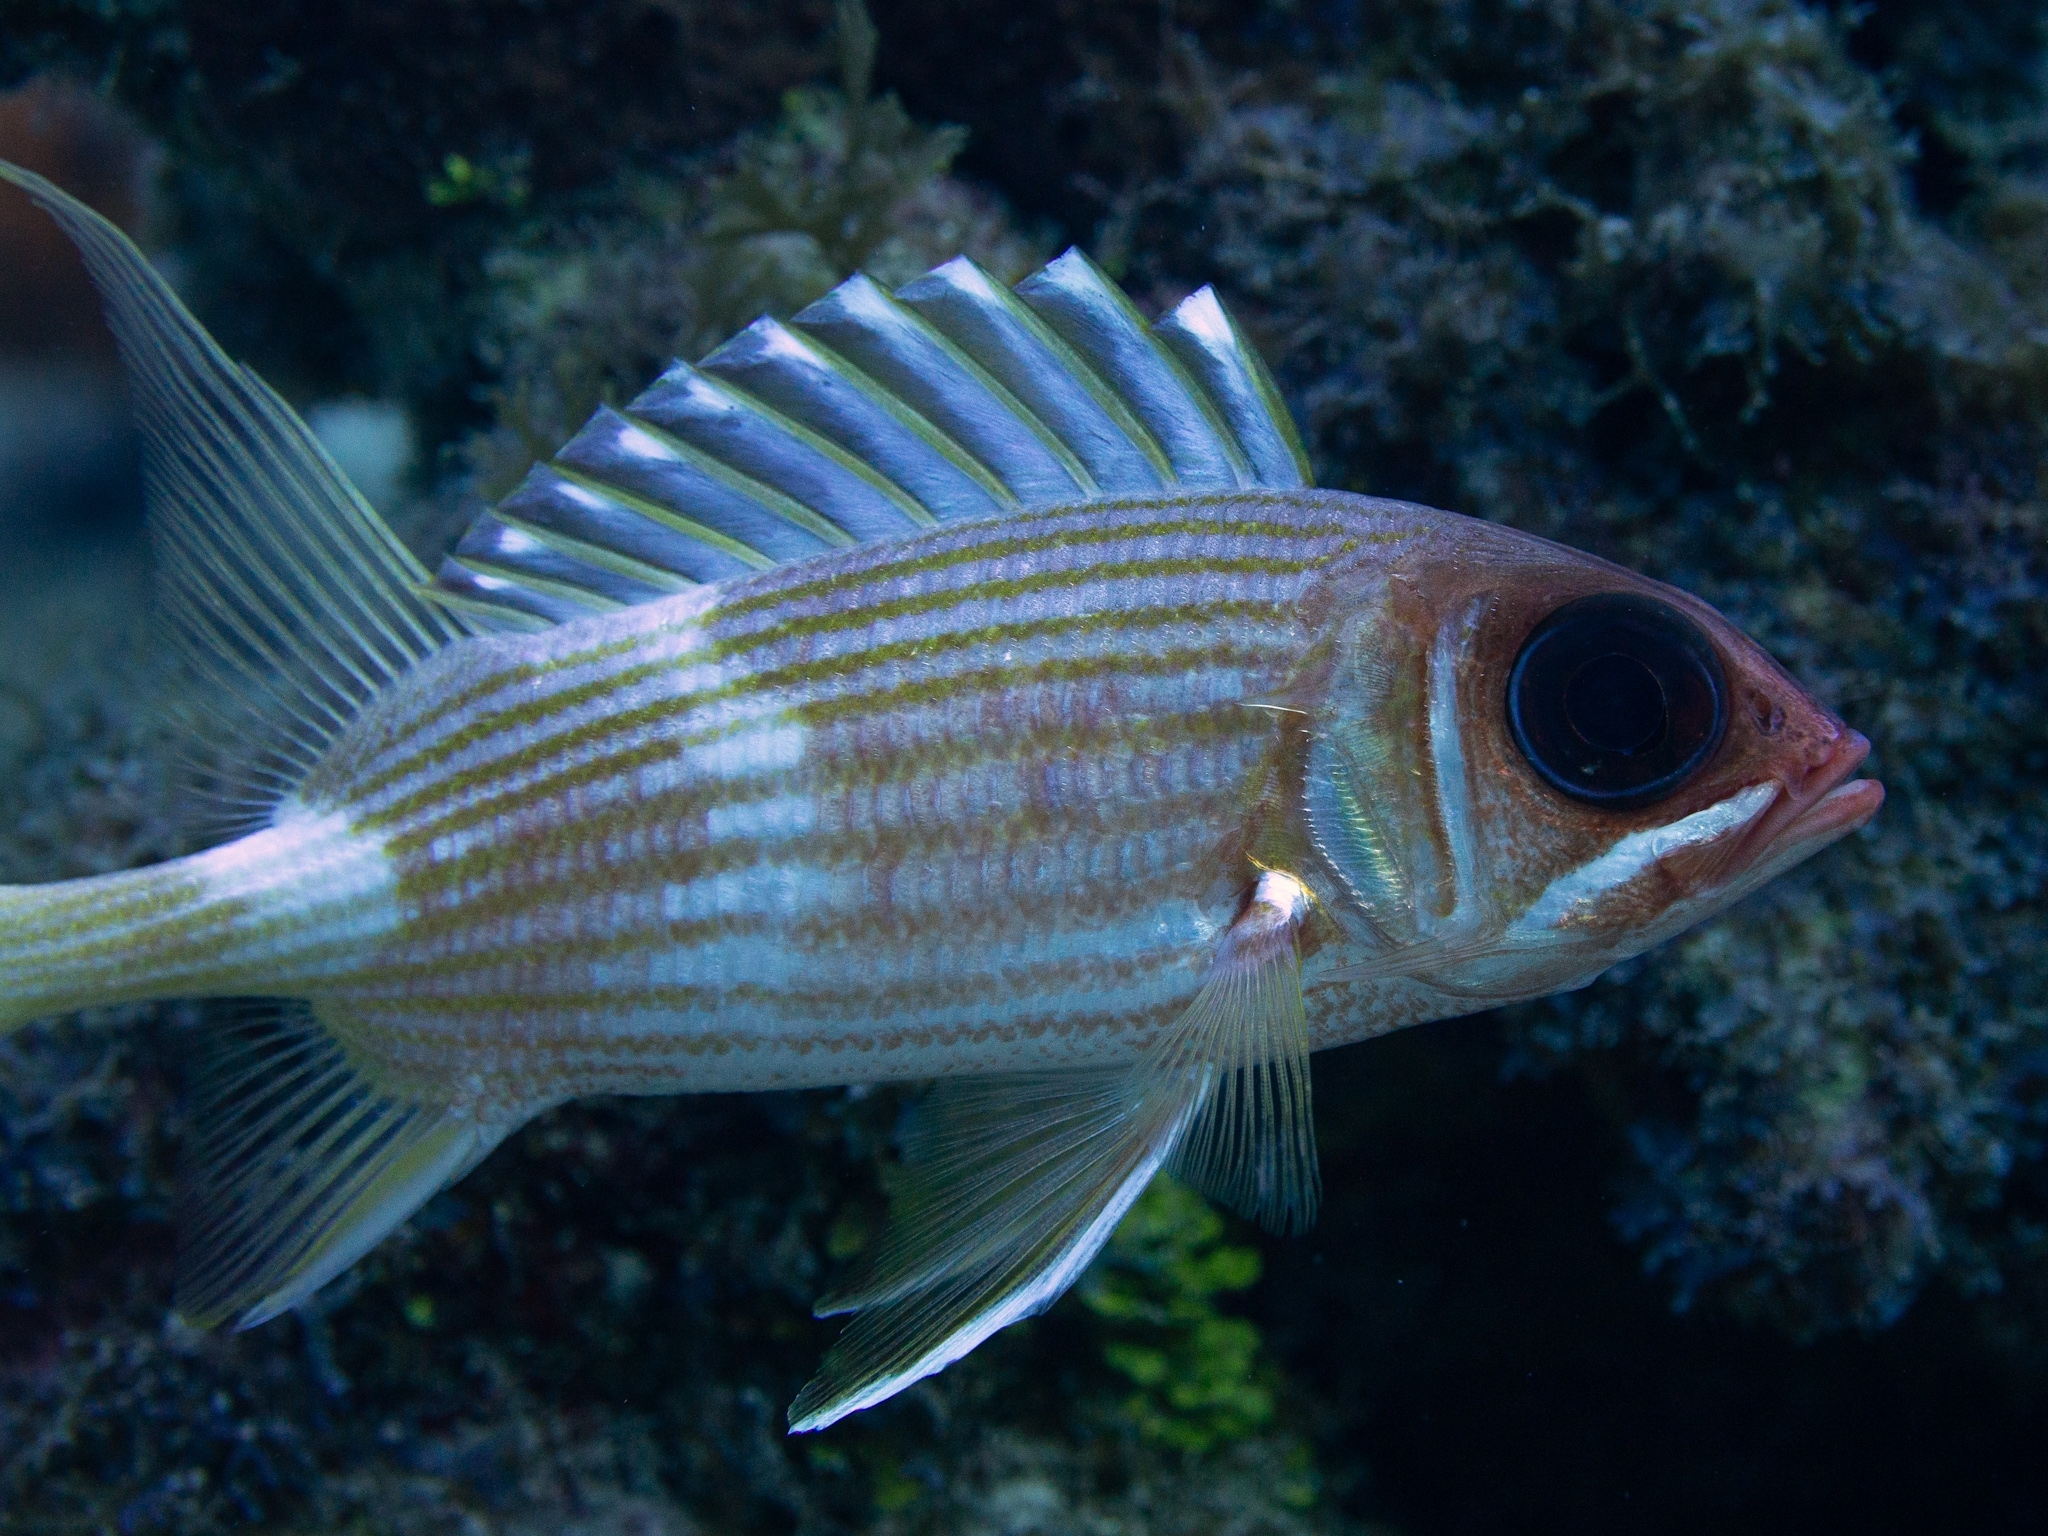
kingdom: Animalia
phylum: Chordata
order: Beryciformes
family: Holocentridae
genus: Holocentrus
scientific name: Holocentrus rufus
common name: Longspine squirrelfish
